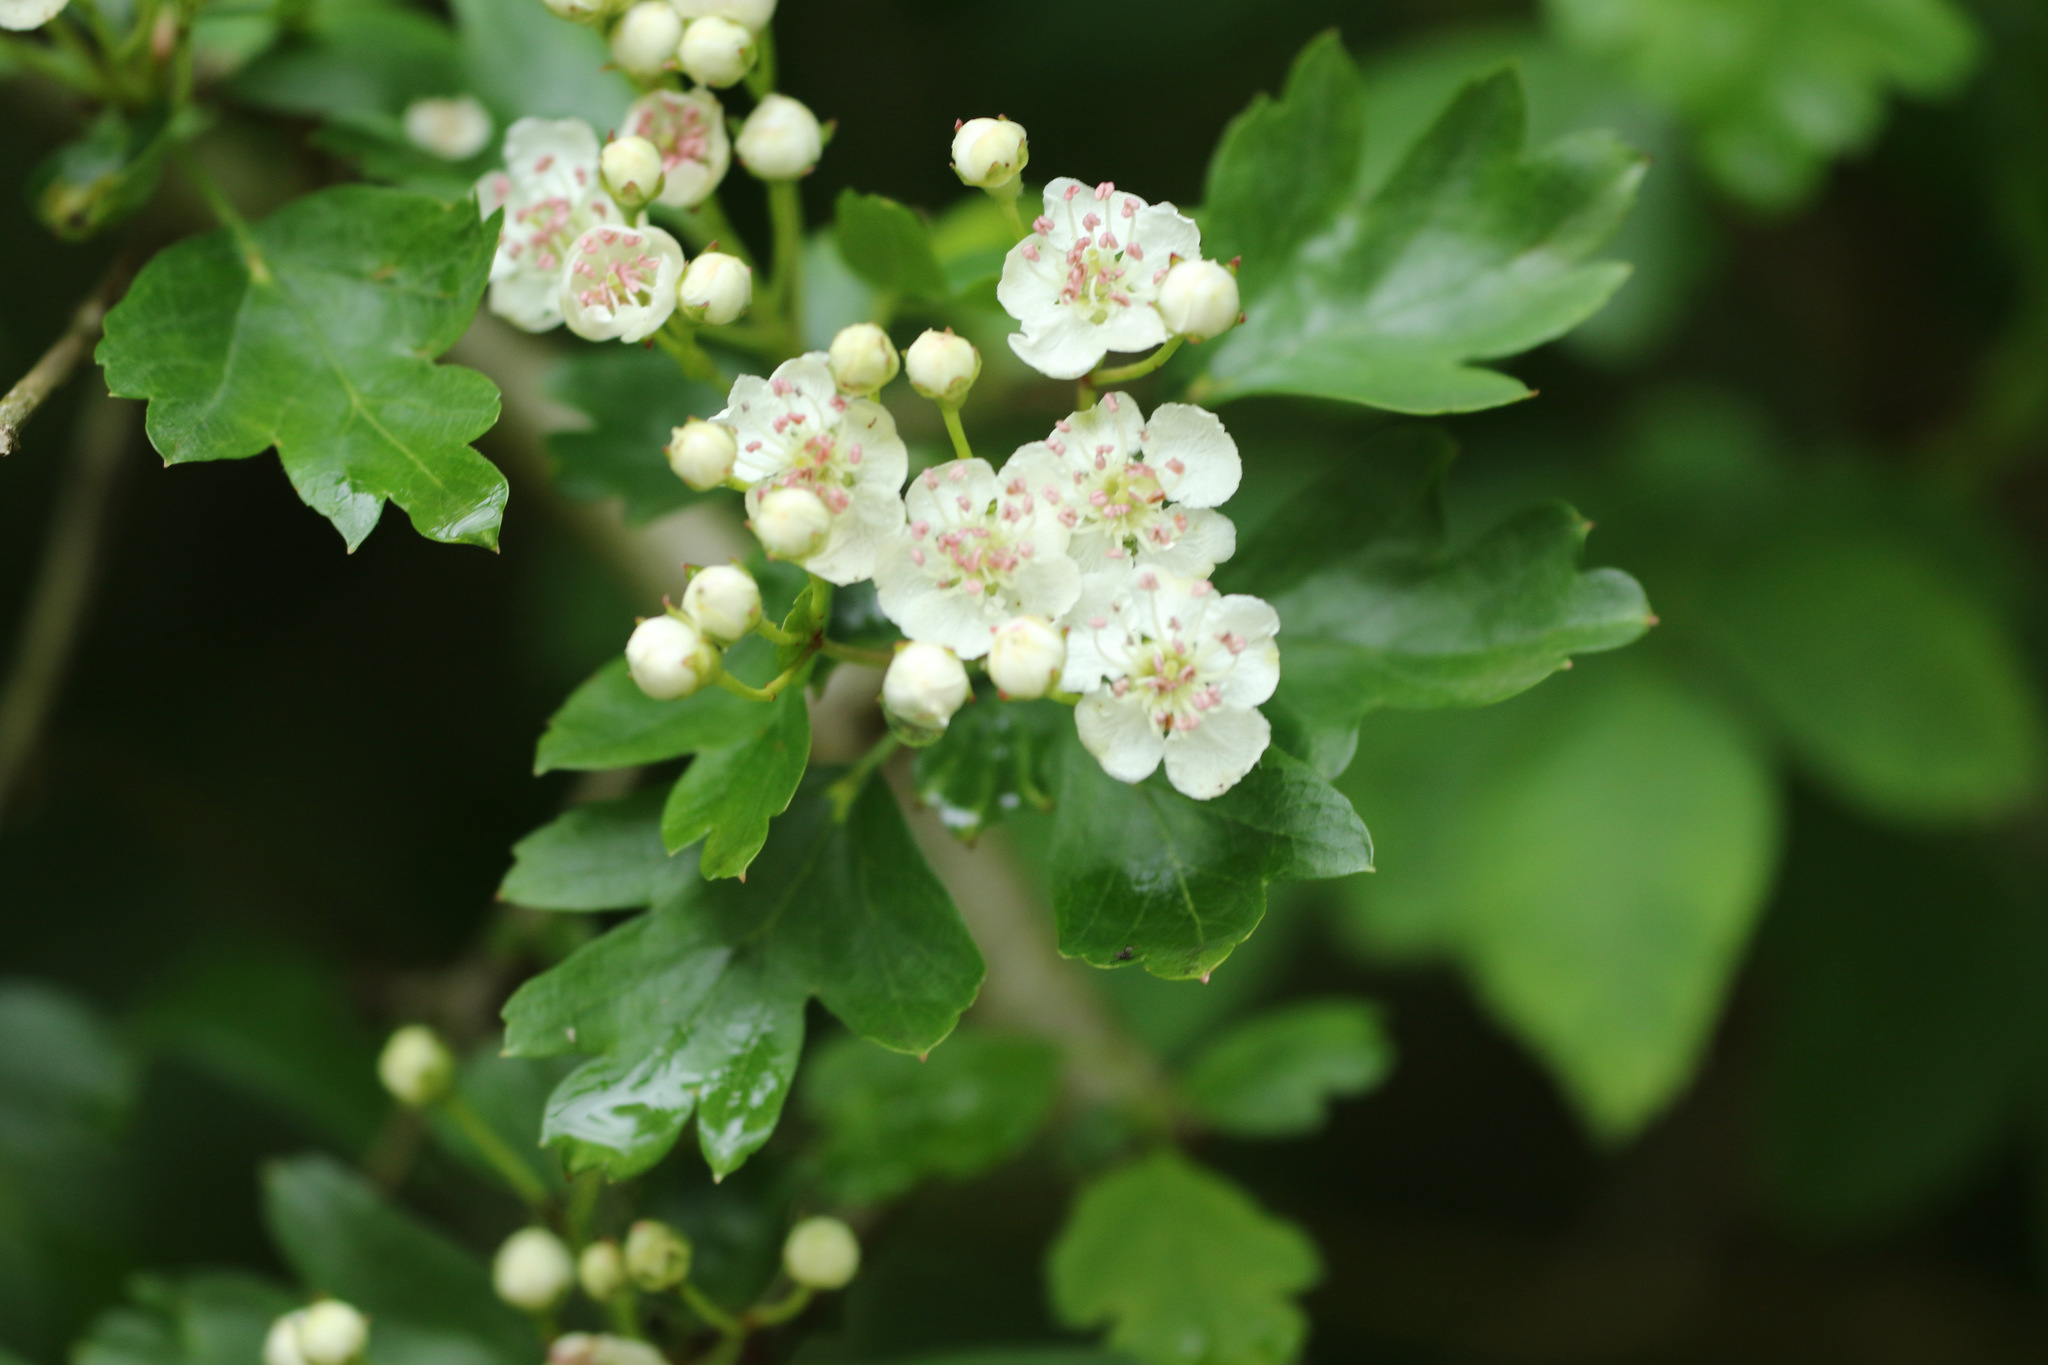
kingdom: Plantae
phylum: Tracheophyta
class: Magnoliopsida
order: Rosales
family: Rosaceae
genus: Crataegus
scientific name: Crataegus monogyna
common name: Hawthorn
